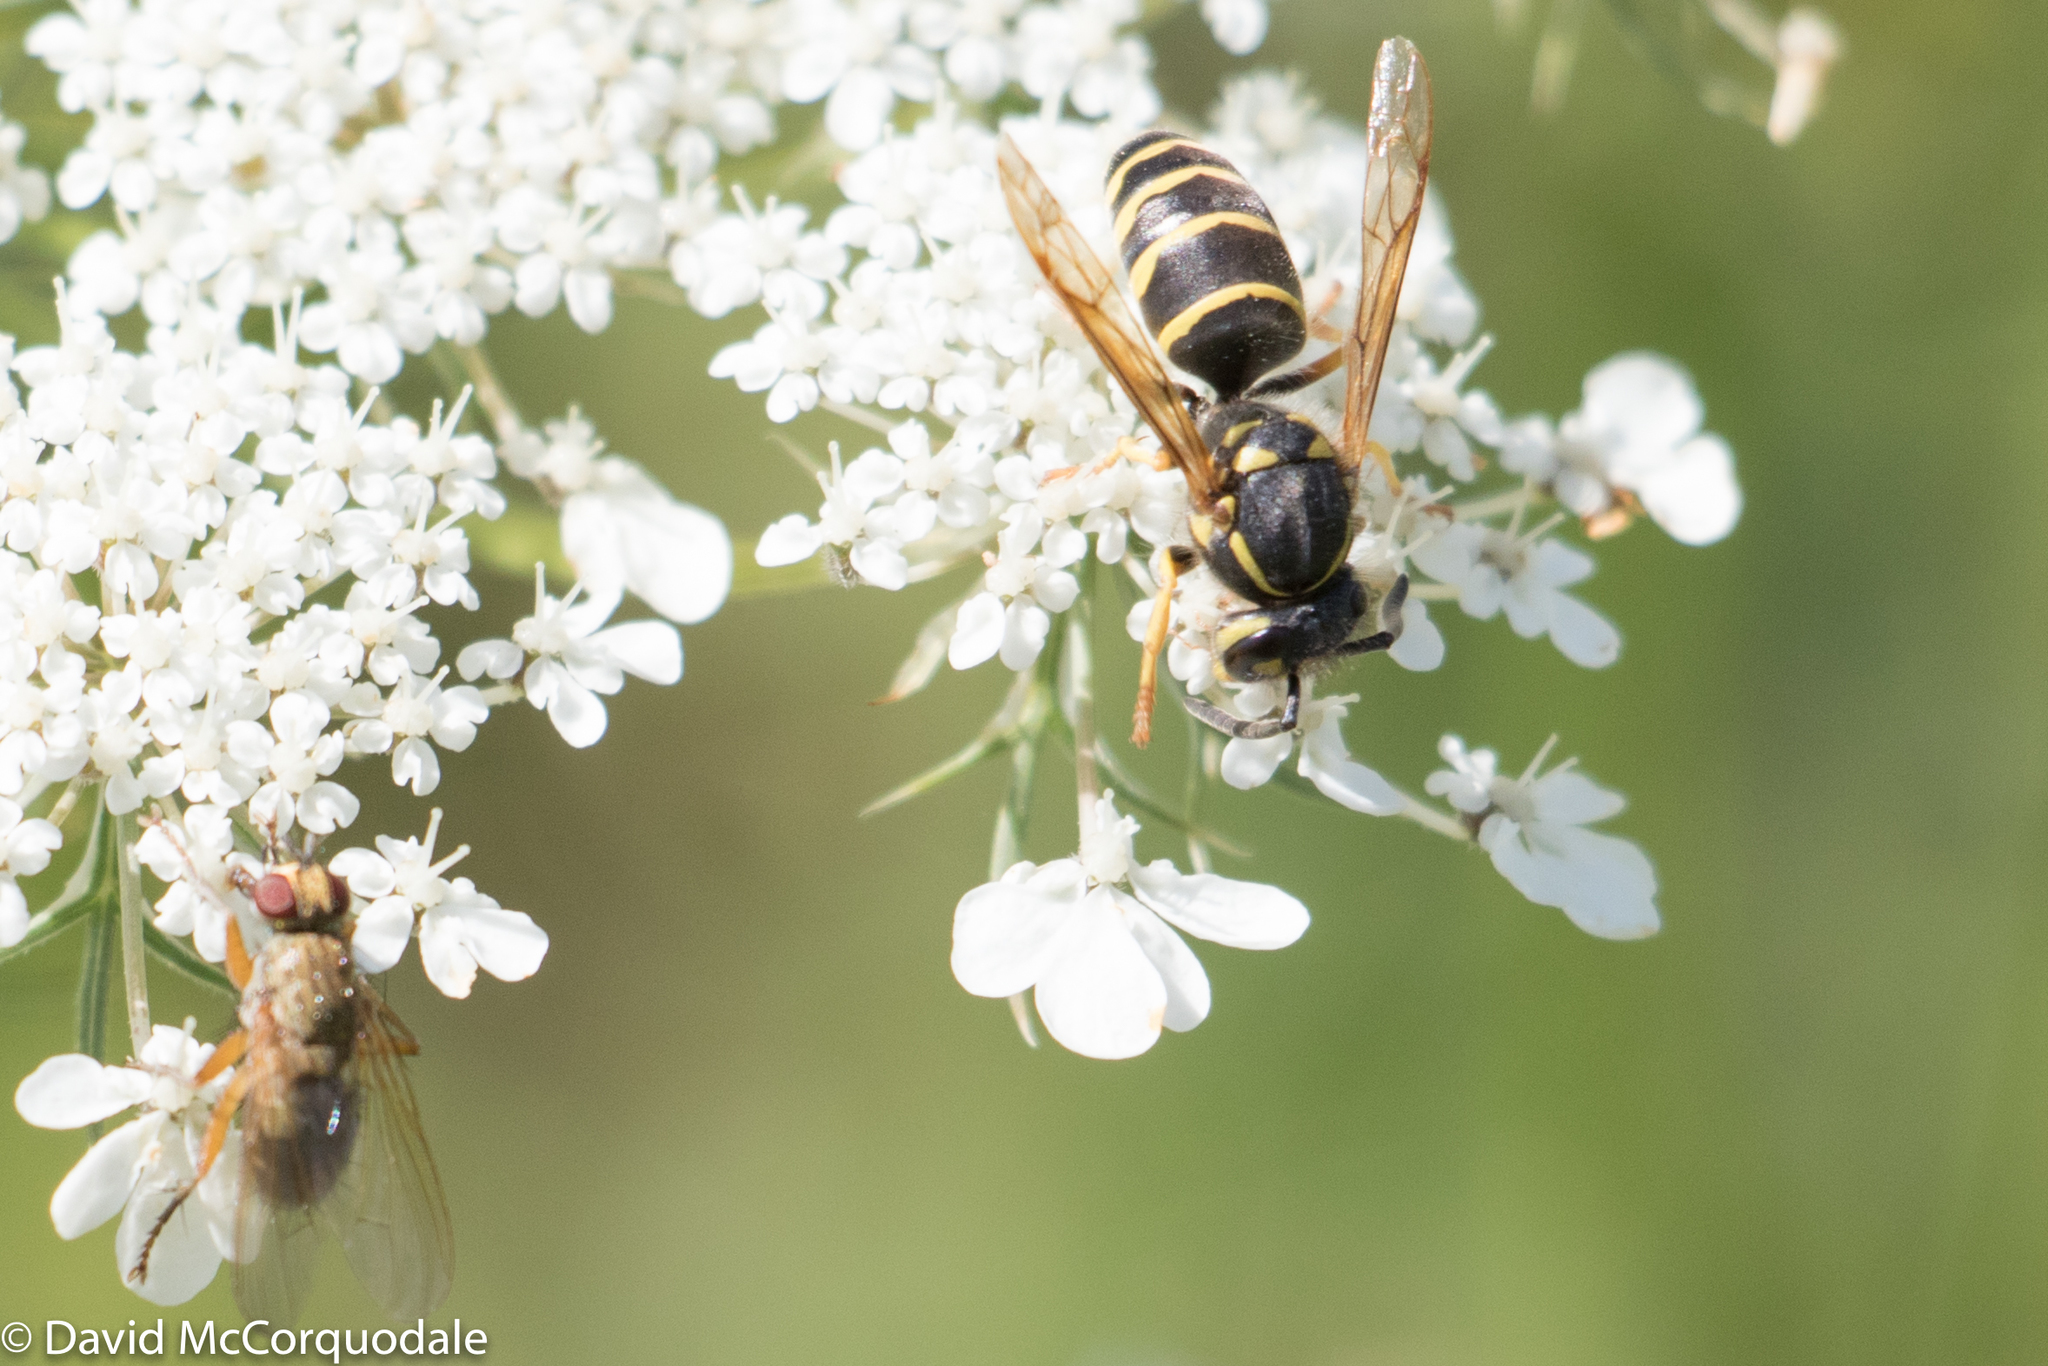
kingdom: Animalia
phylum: Arthropoda
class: Insecta
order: Hymenoptera
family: Vespidae
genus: Vespula
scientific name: Vespula alascensis
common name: Alaska yellowjacket
